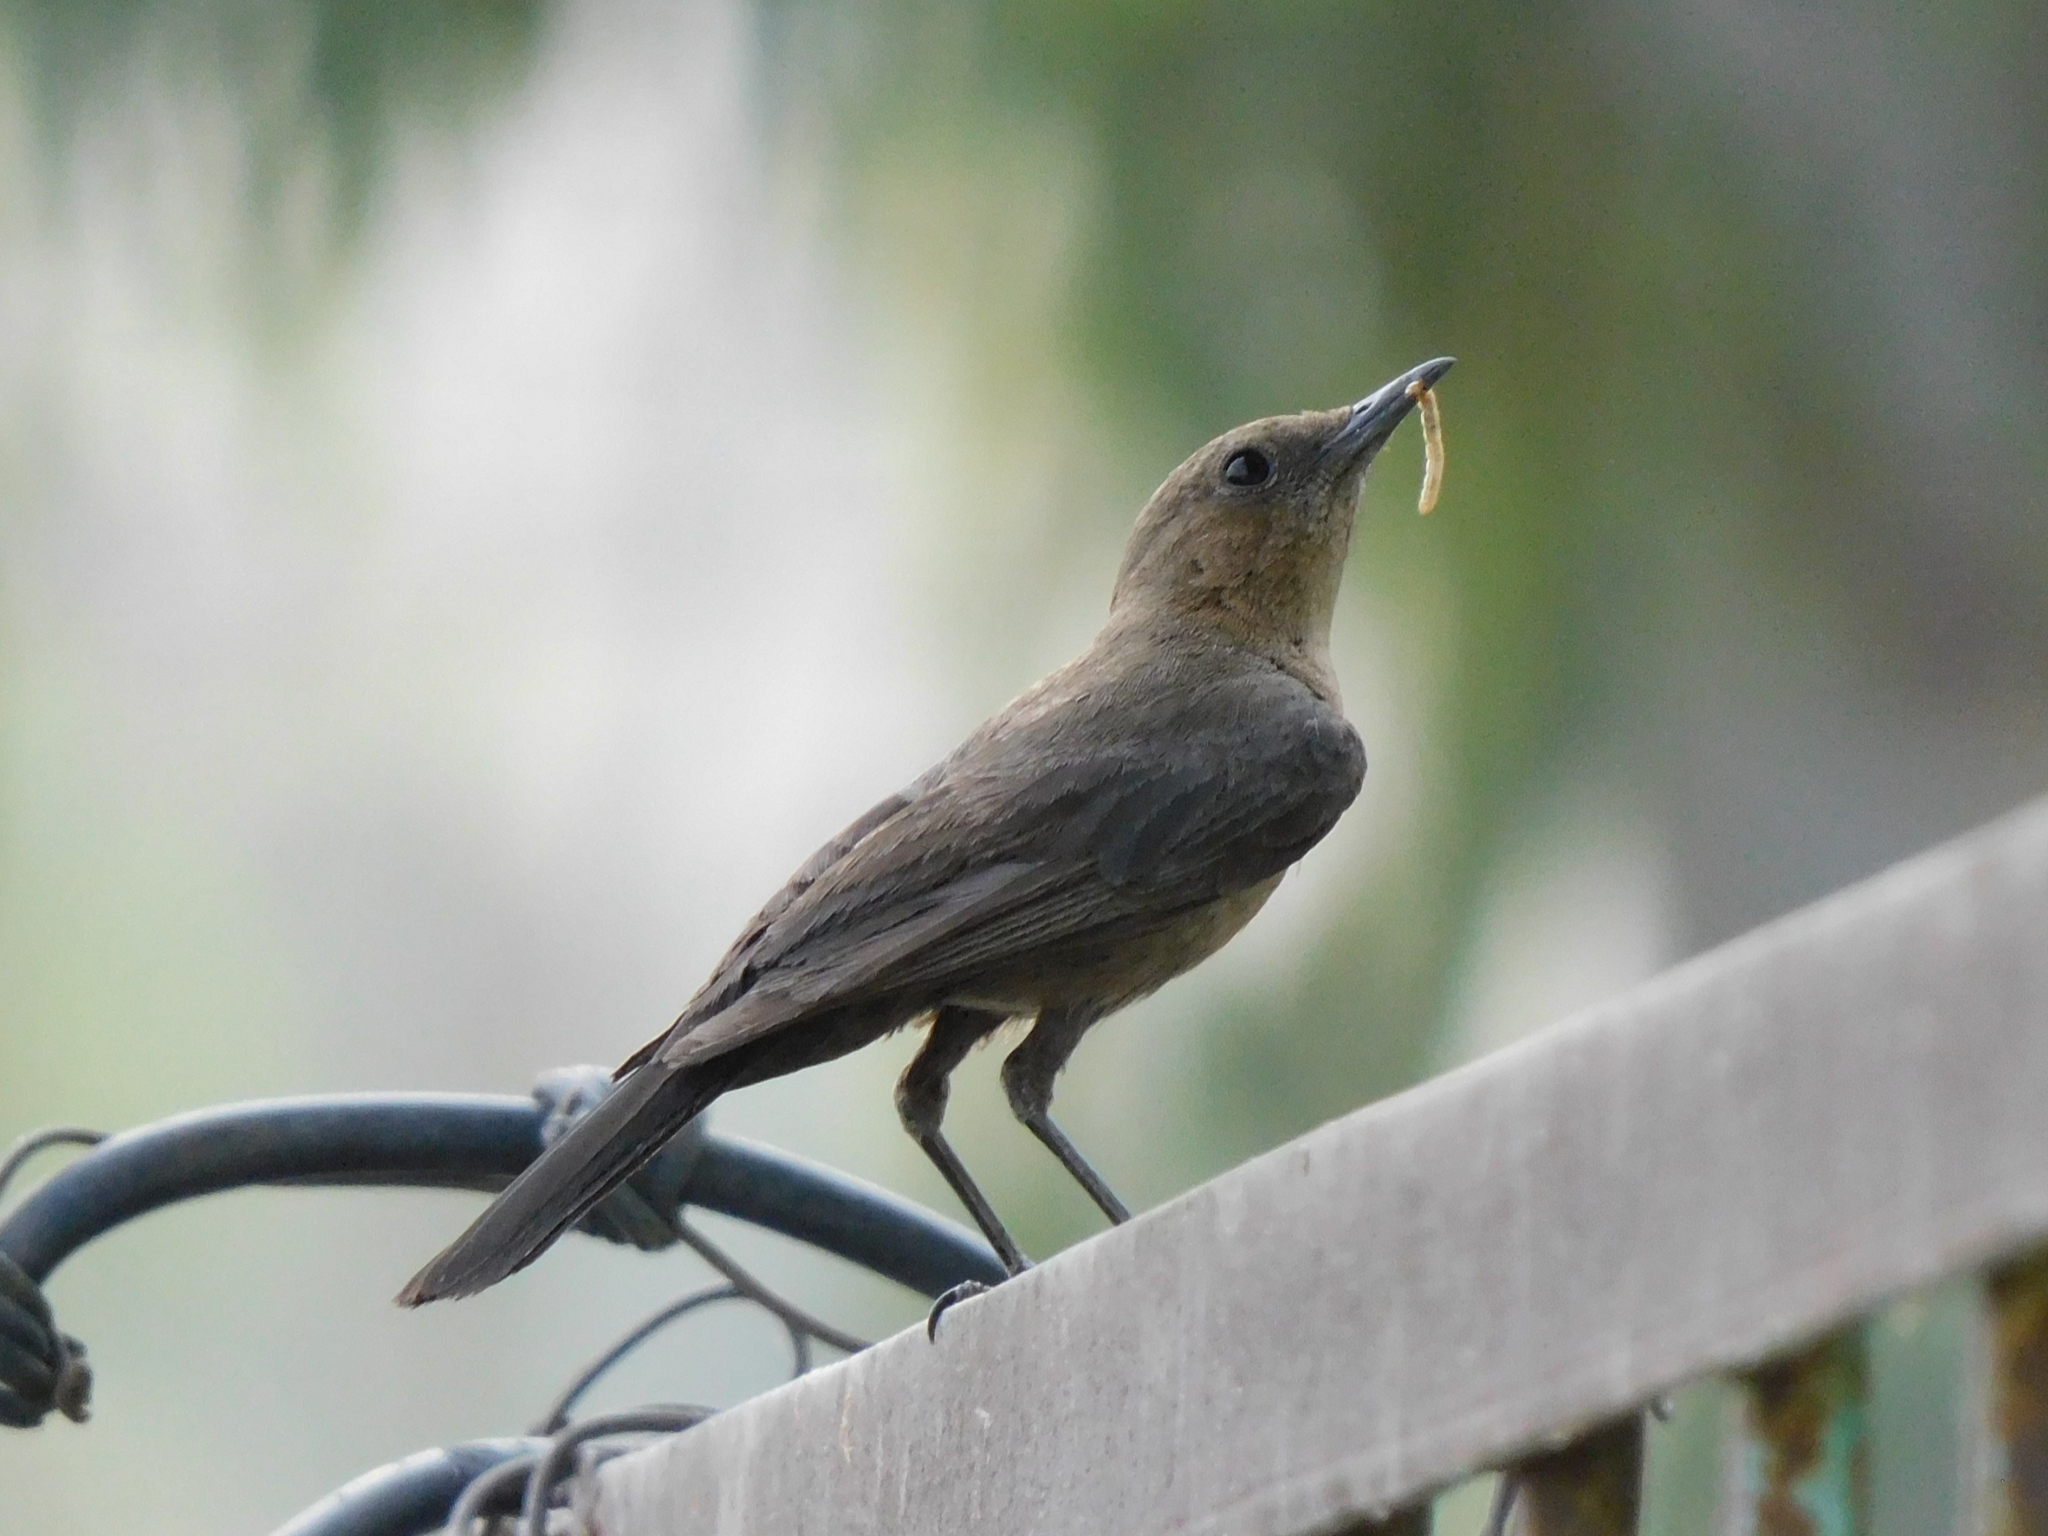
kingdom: Animalia
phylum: Chordata
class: Aves
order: Passeriformes
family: Muscicapidae
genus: Oenanthe
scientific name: Oenanthe fusca
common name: Brown rock chat
